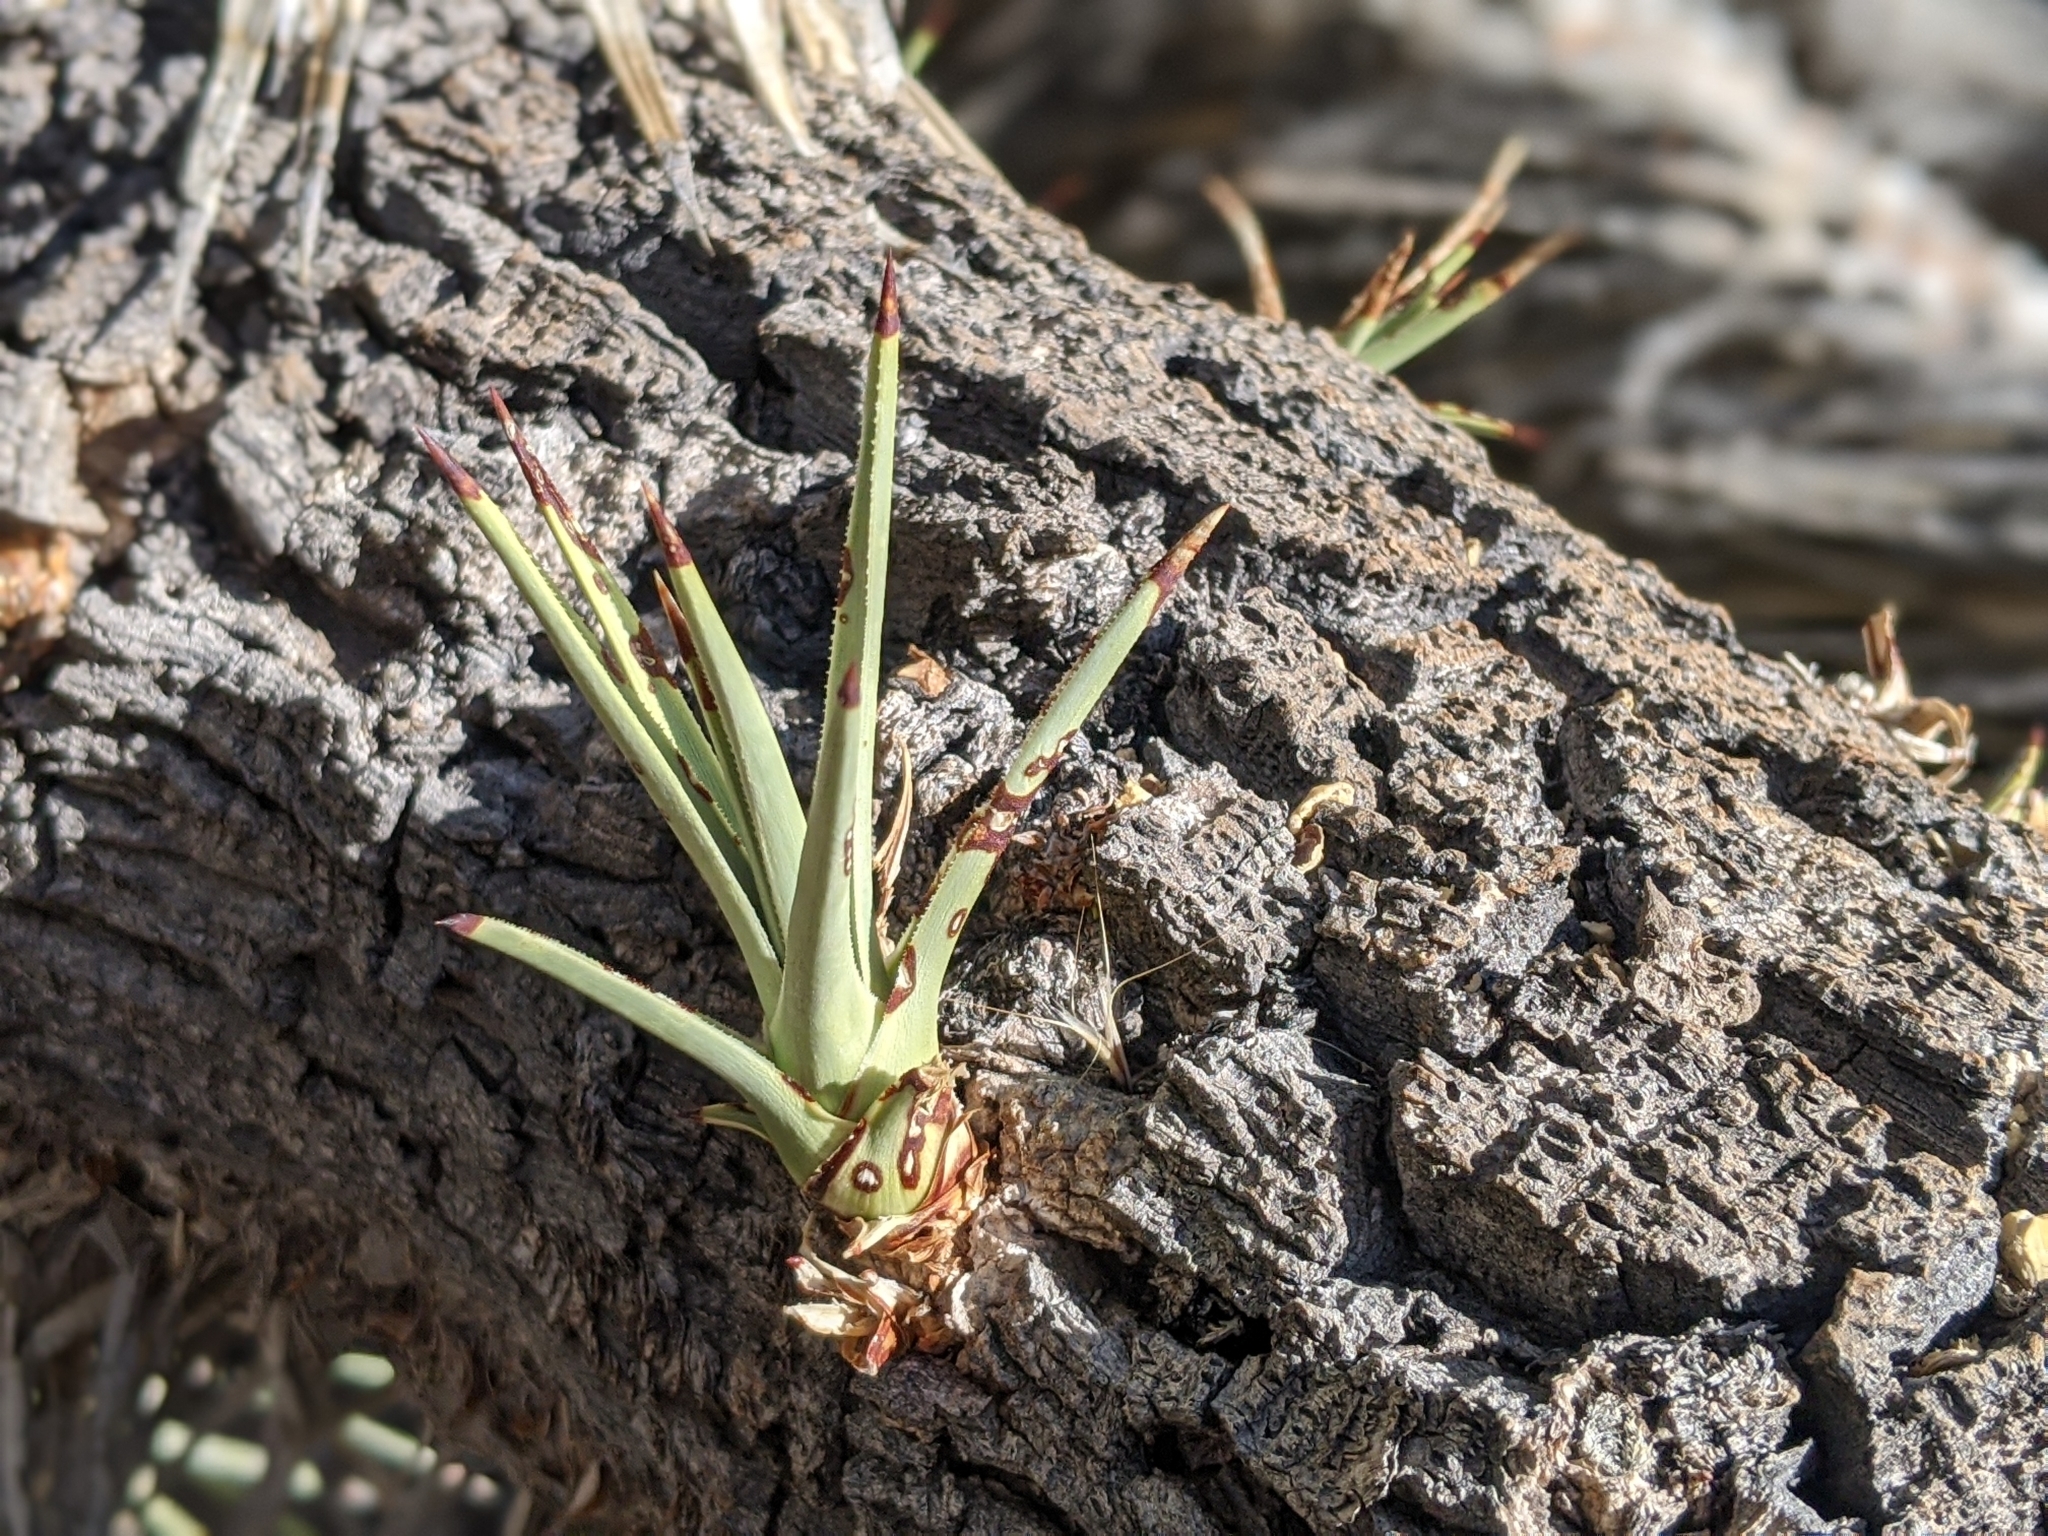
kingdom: Plantae
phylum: Tracheophyta
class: Liliopsida
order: Asparagales
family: Asparagaceae
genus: Yucca
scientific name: Yucca brevifolia
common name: Joshua tree
